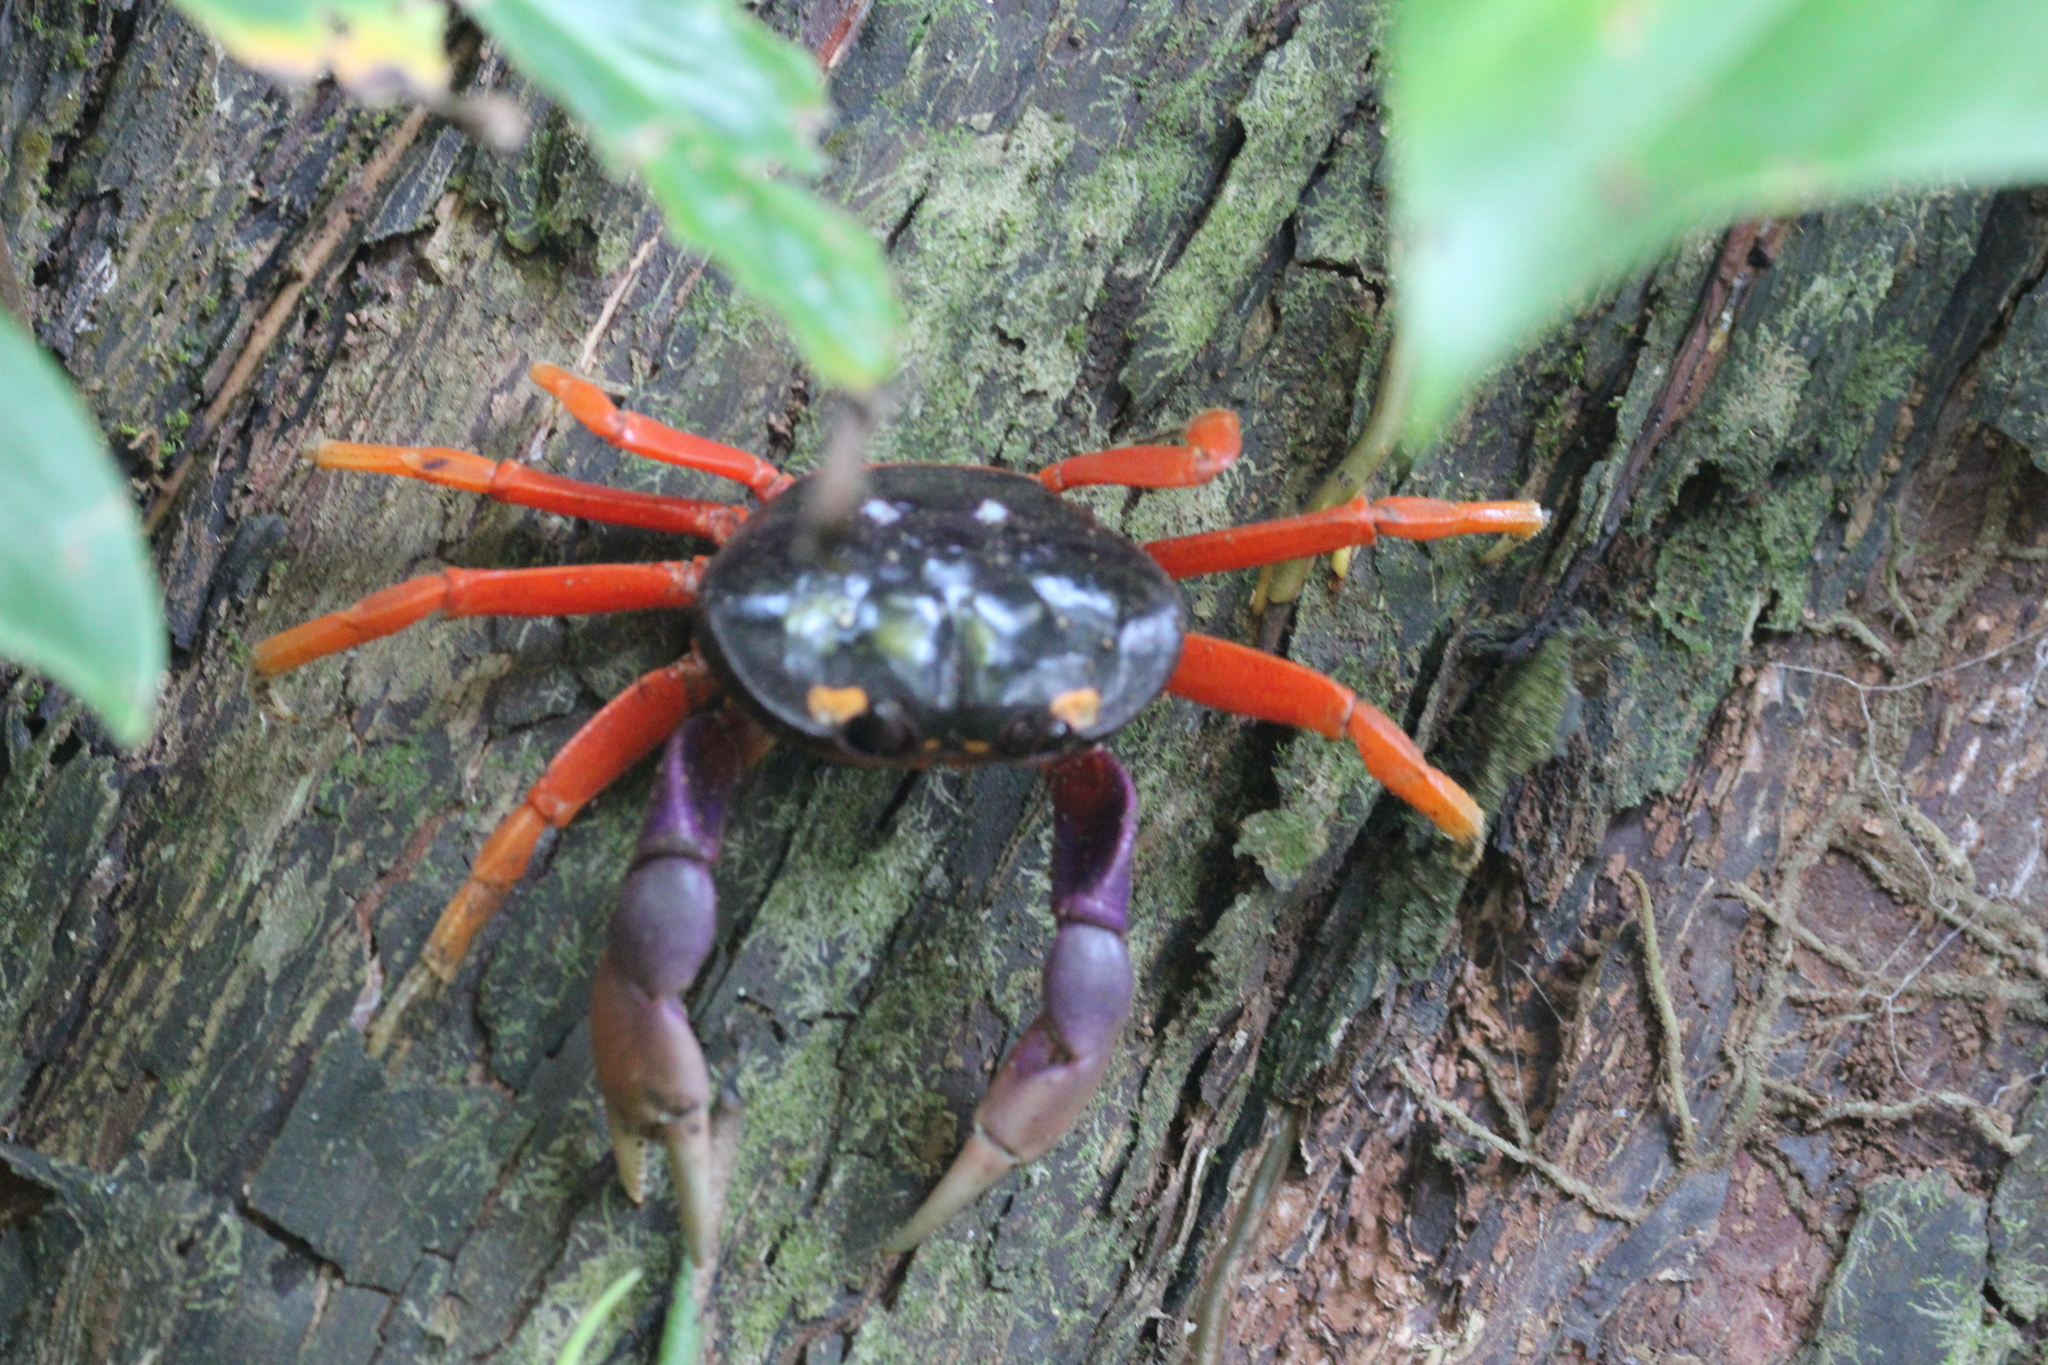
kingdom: Animalia
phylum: Arthropoda
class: Malacostraca
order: Decapoda
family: Gecarcinidae
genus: Gecarcinus
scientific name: Gecarcinus quadratus
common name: Halloween crab
